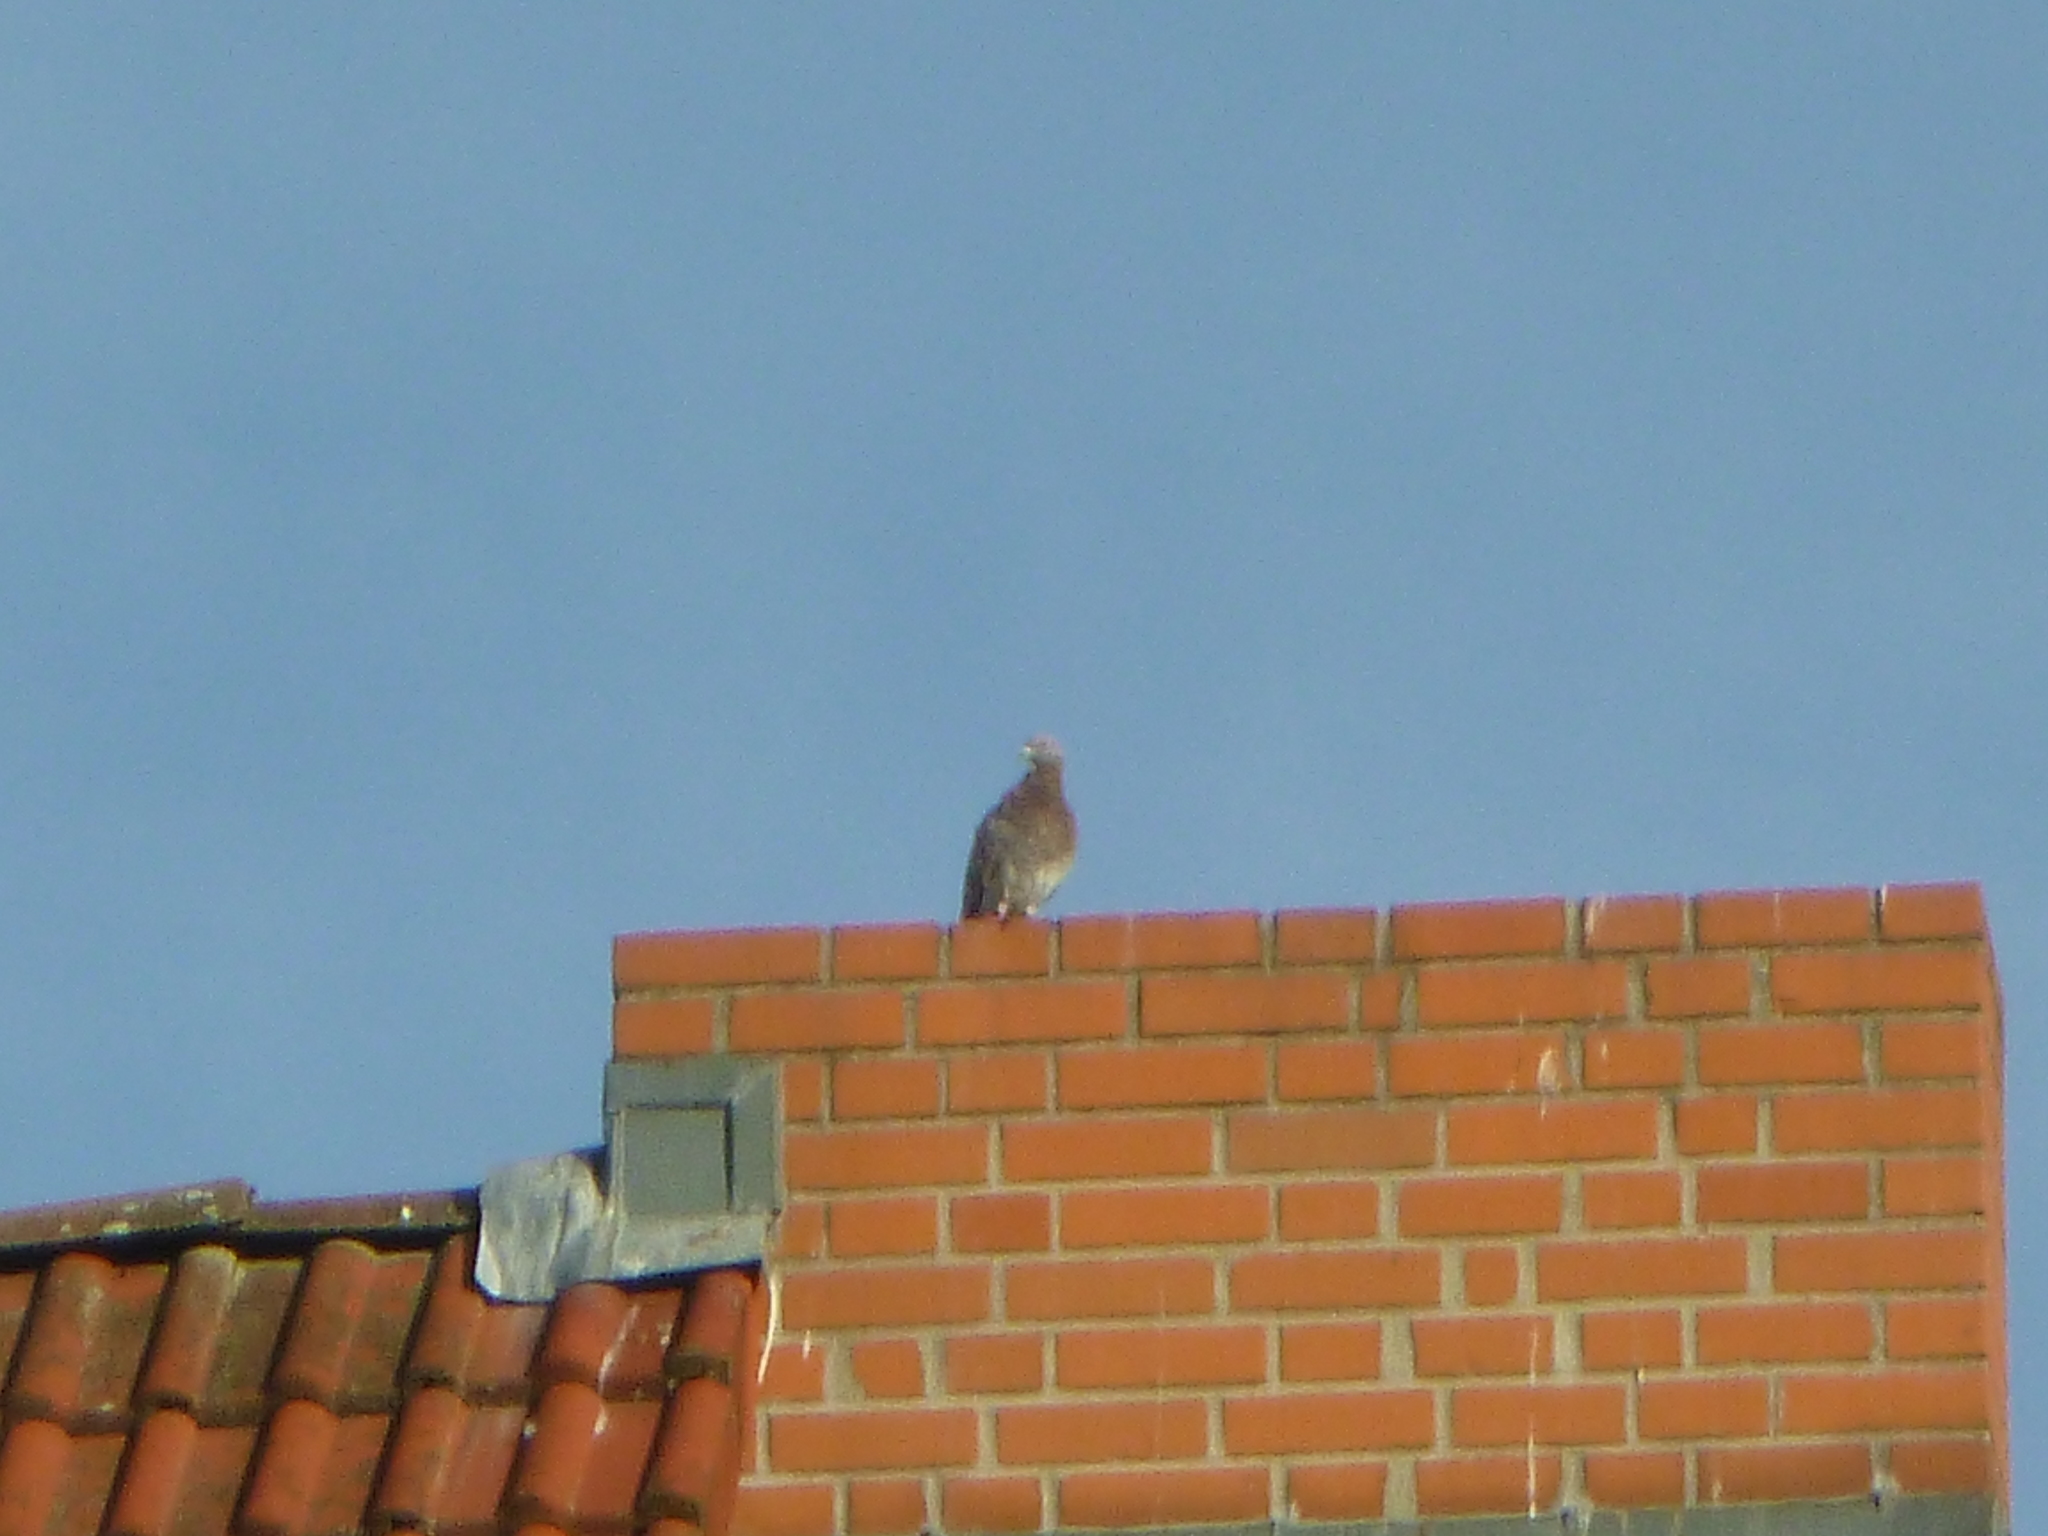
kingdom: Animalia
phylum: Chordata
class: Aves
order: Columbiformes
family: Columbidae
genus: Columba
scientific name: Columba livia
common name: Rock pigeon
